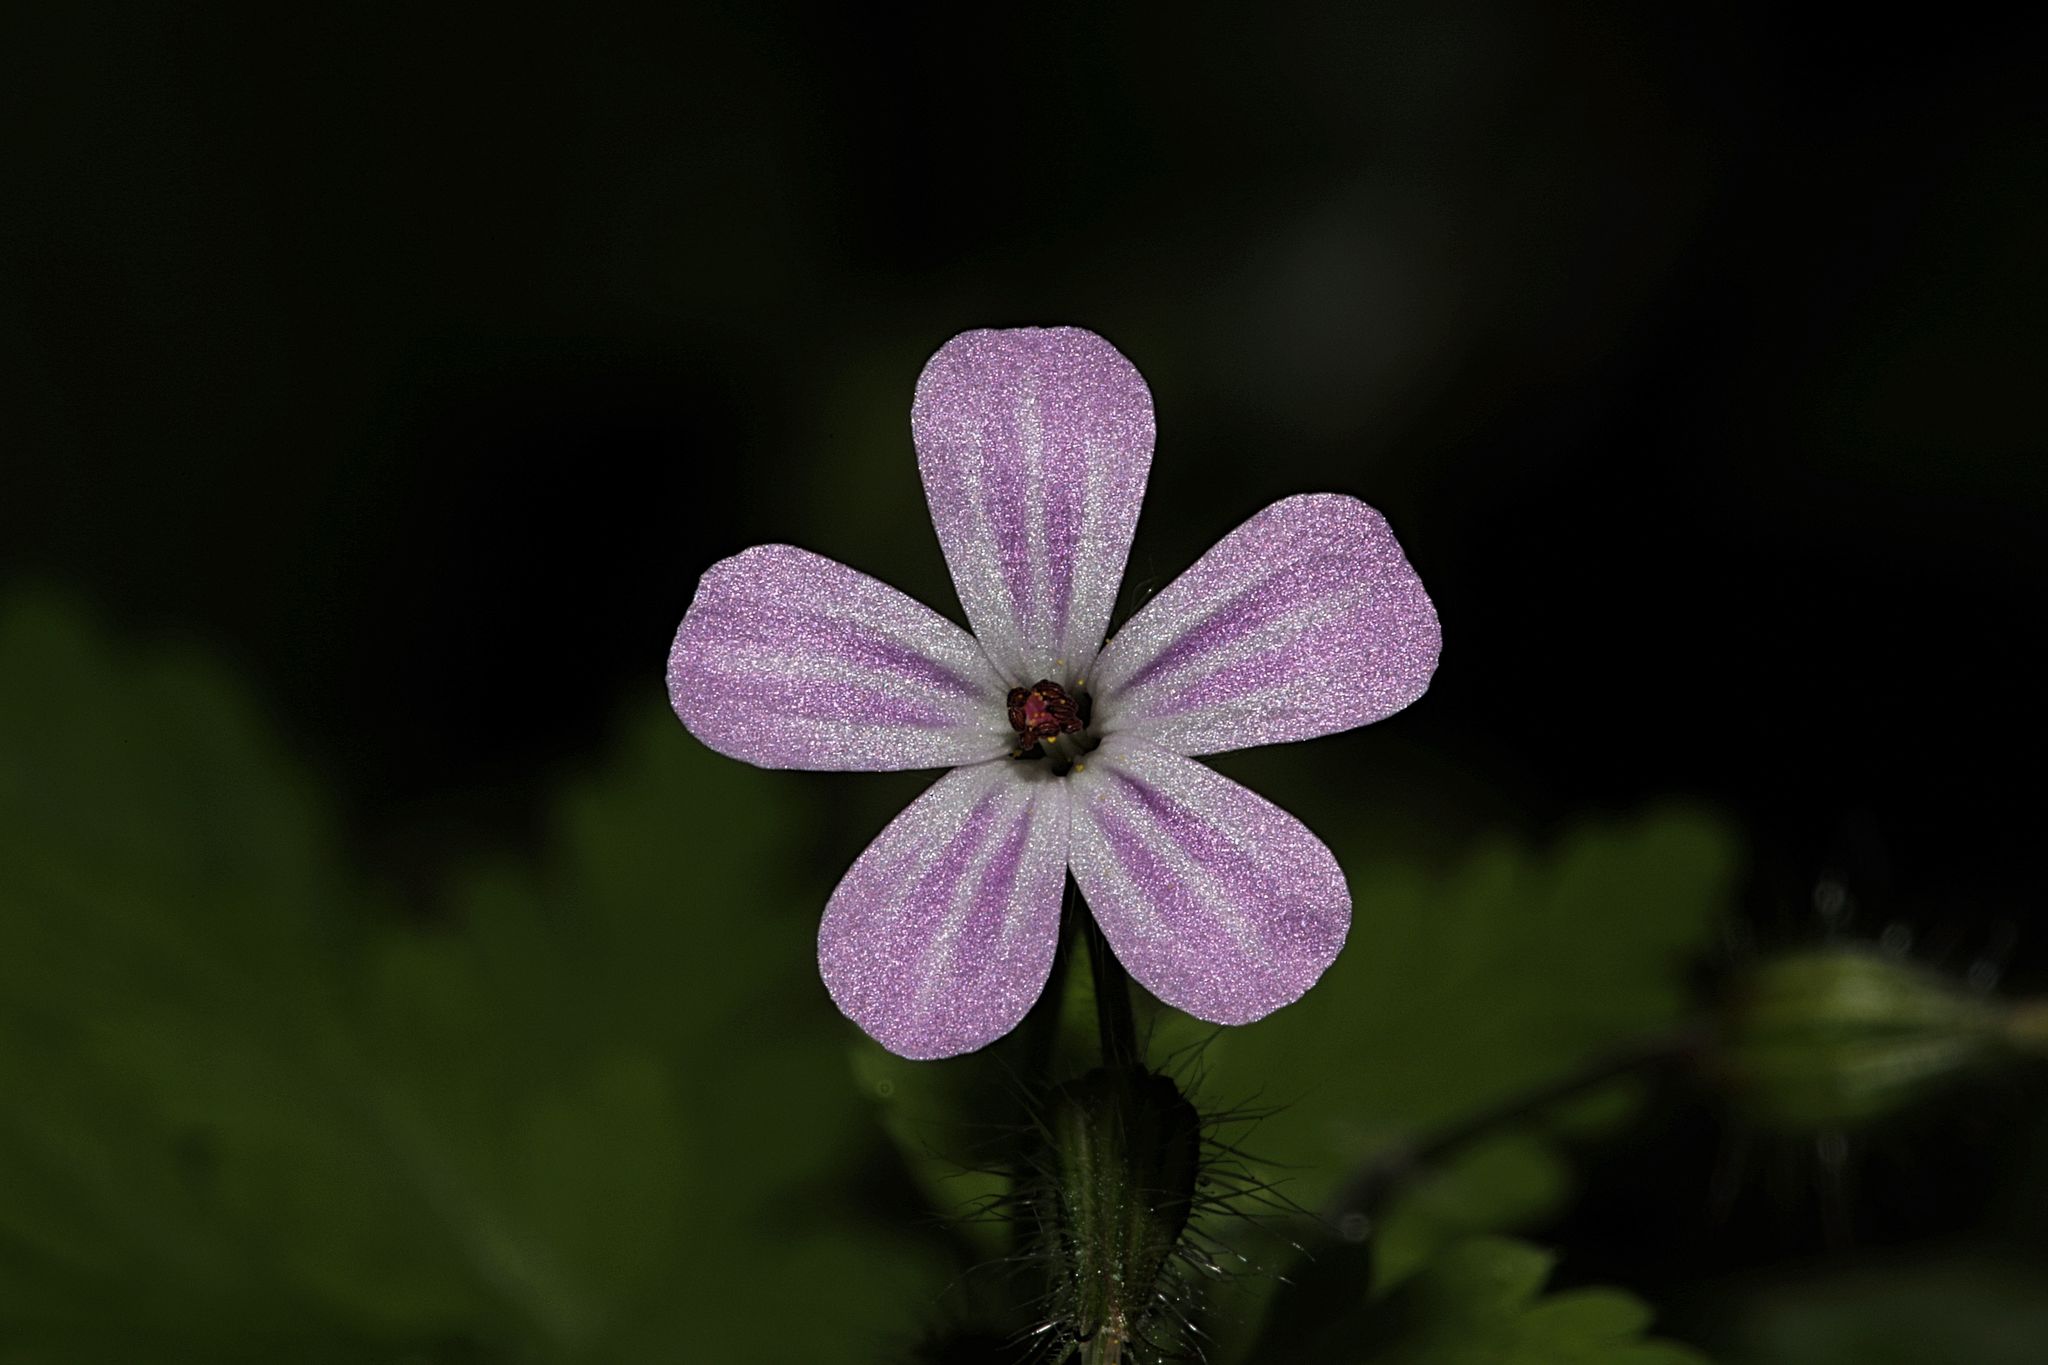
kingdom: Plantae
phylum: Tracheophyta
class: Magnoliopsida
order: Geraniales
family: Geraniaceae
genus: Geranium
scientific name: Geranium robertianum
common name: Herb-robert
